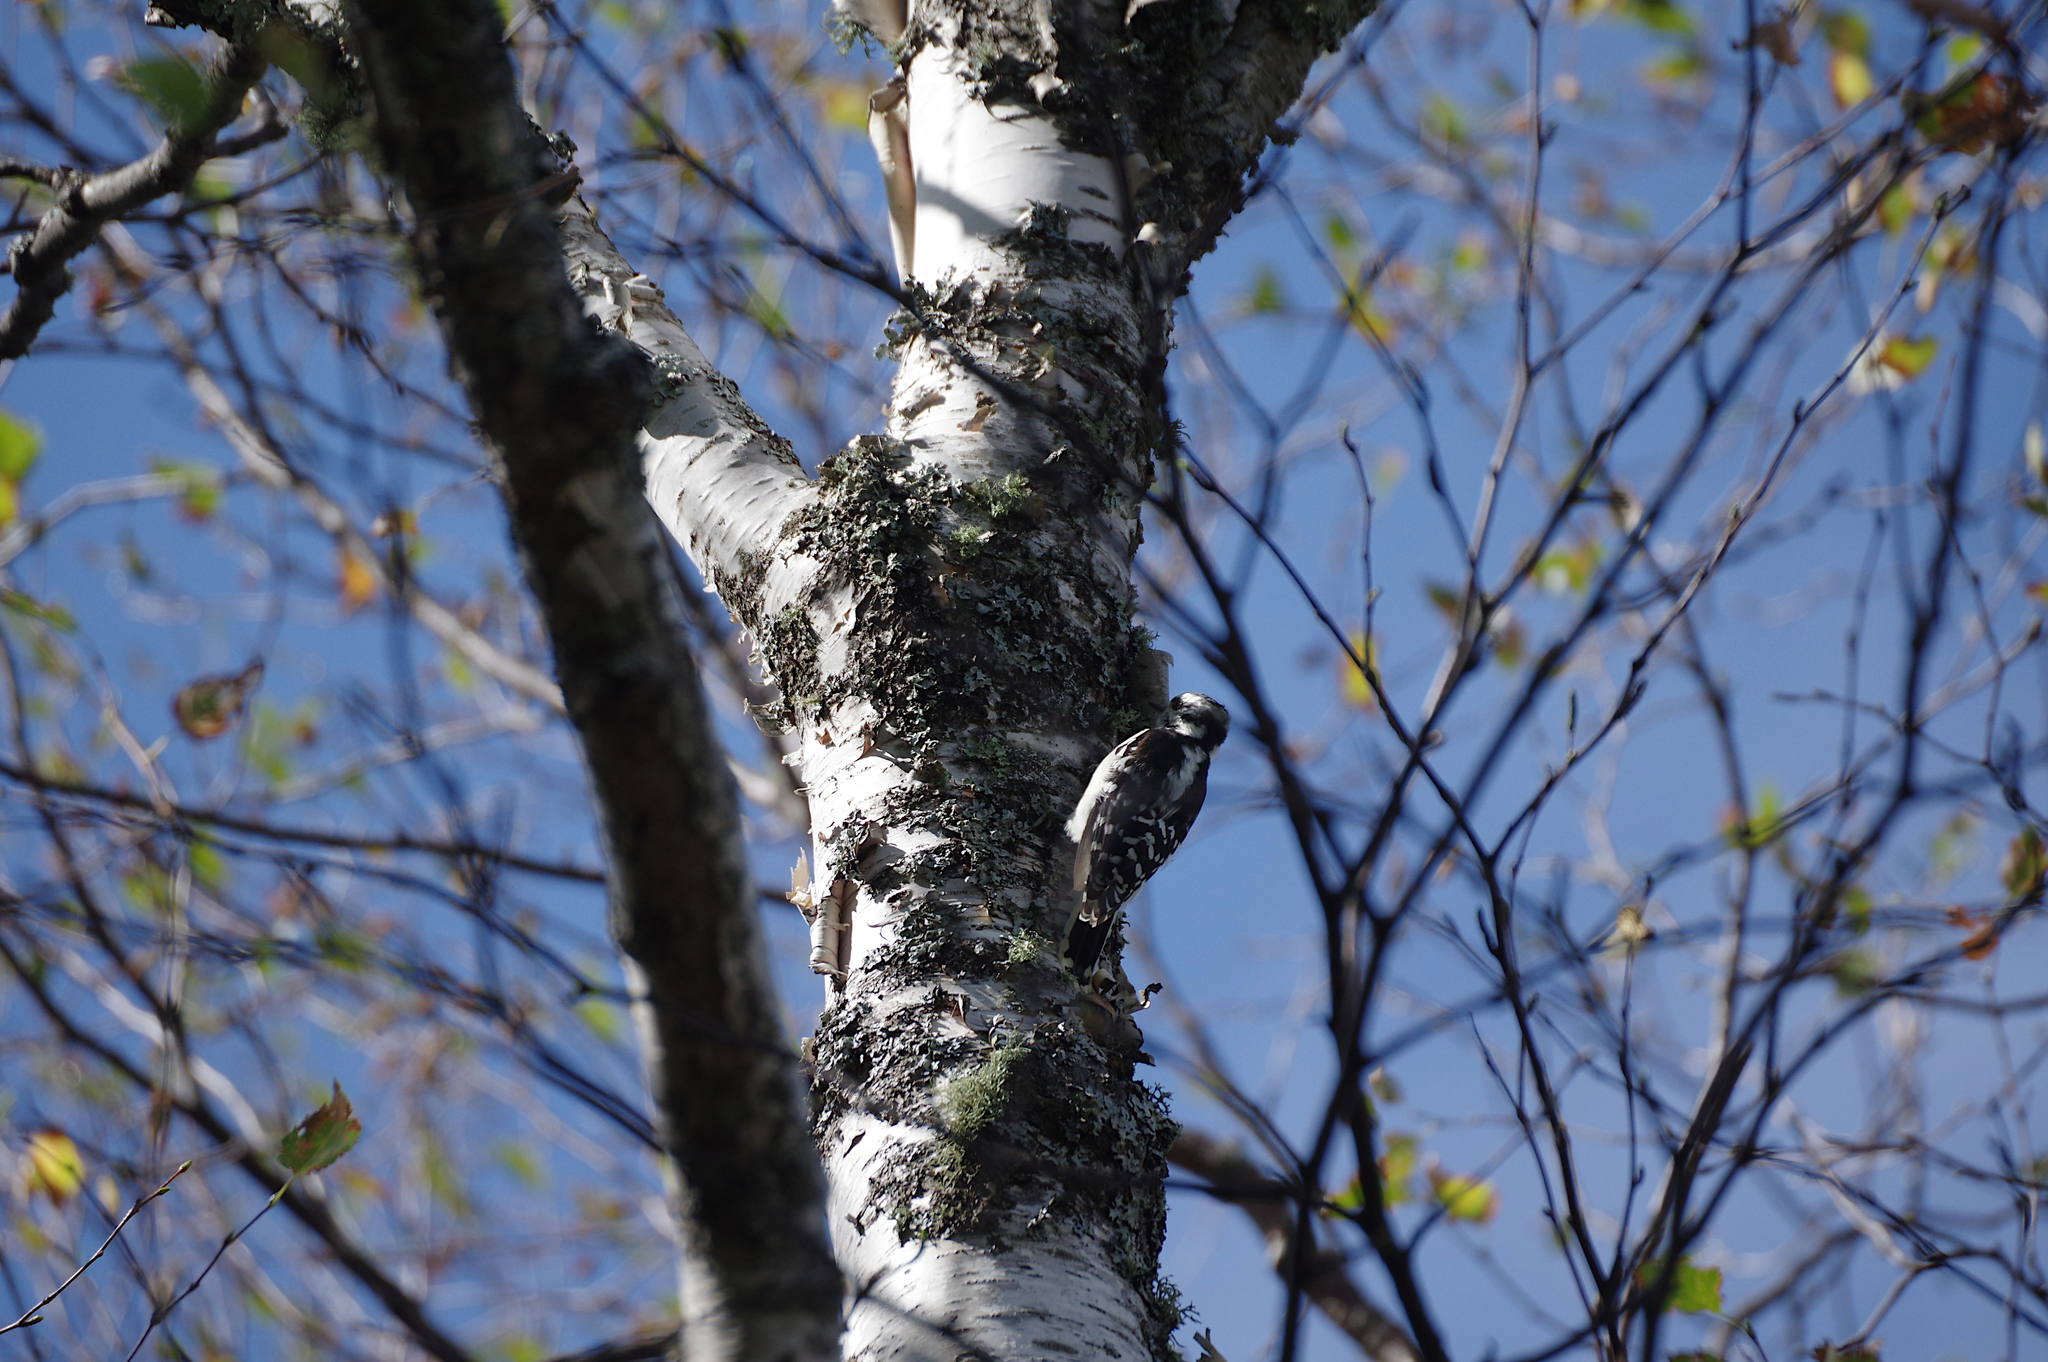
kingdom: Animalia
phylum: Chordata
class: Aves
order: Piciformes
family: Picidae
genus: Dryobates
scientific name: Dryobates pubescens
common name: Downy woodpecker
